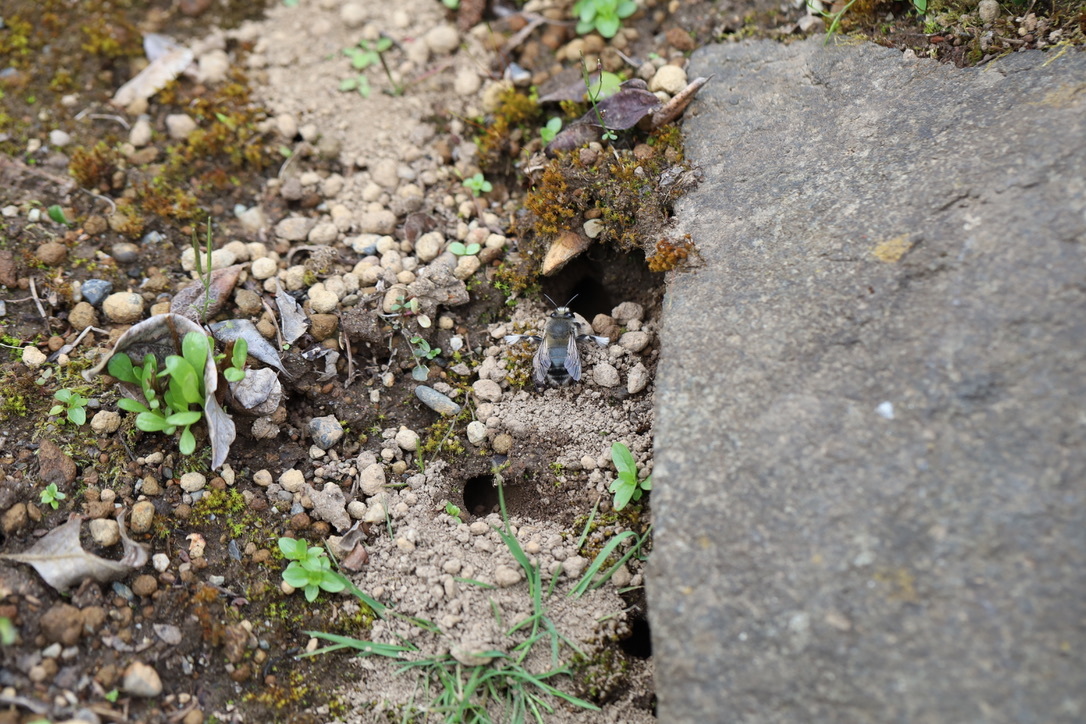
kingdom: Animalia
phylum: Arthropoda
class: Insecta
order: Hymenoptera
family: Apidae
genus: Anthophora
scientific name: Anthophora pacifica
